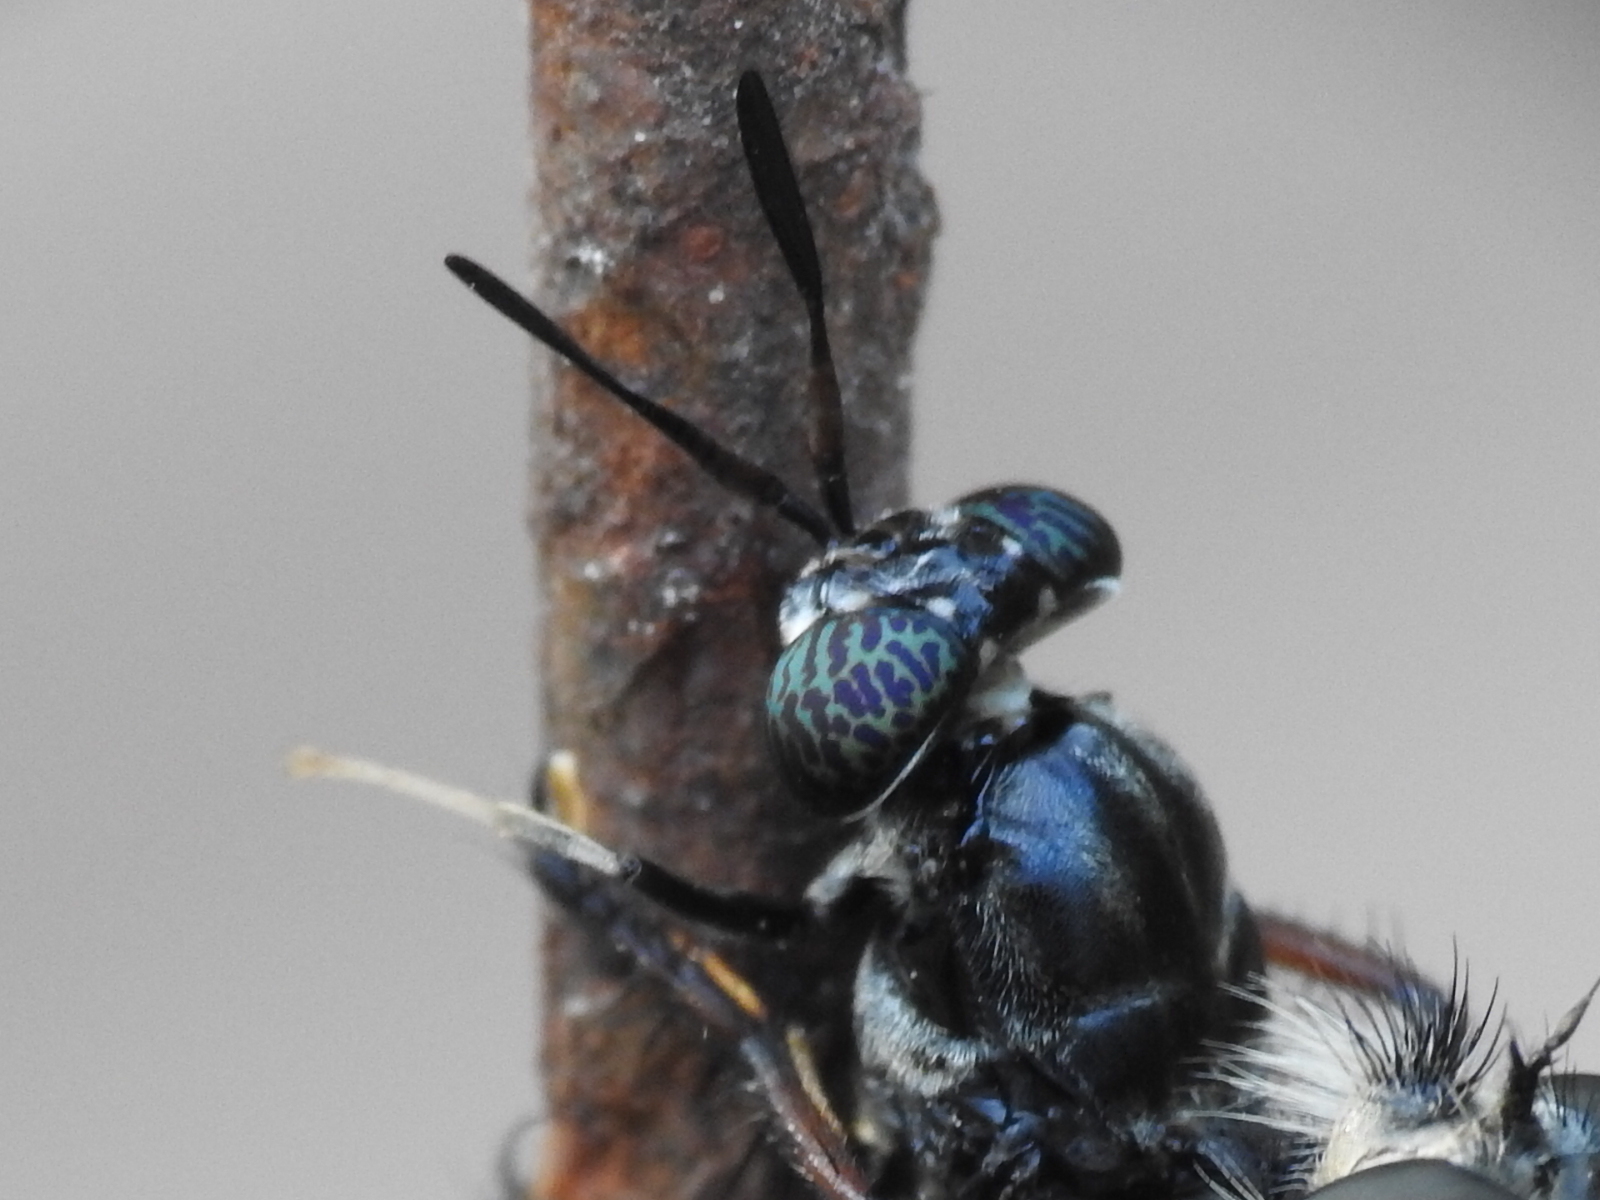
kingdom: Animalia
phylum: Arthropoda
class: Insecta
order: Diptera
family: Stratiomyidae
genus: Hermetia
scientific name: Hermetia illucens
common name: Black soldier fly
